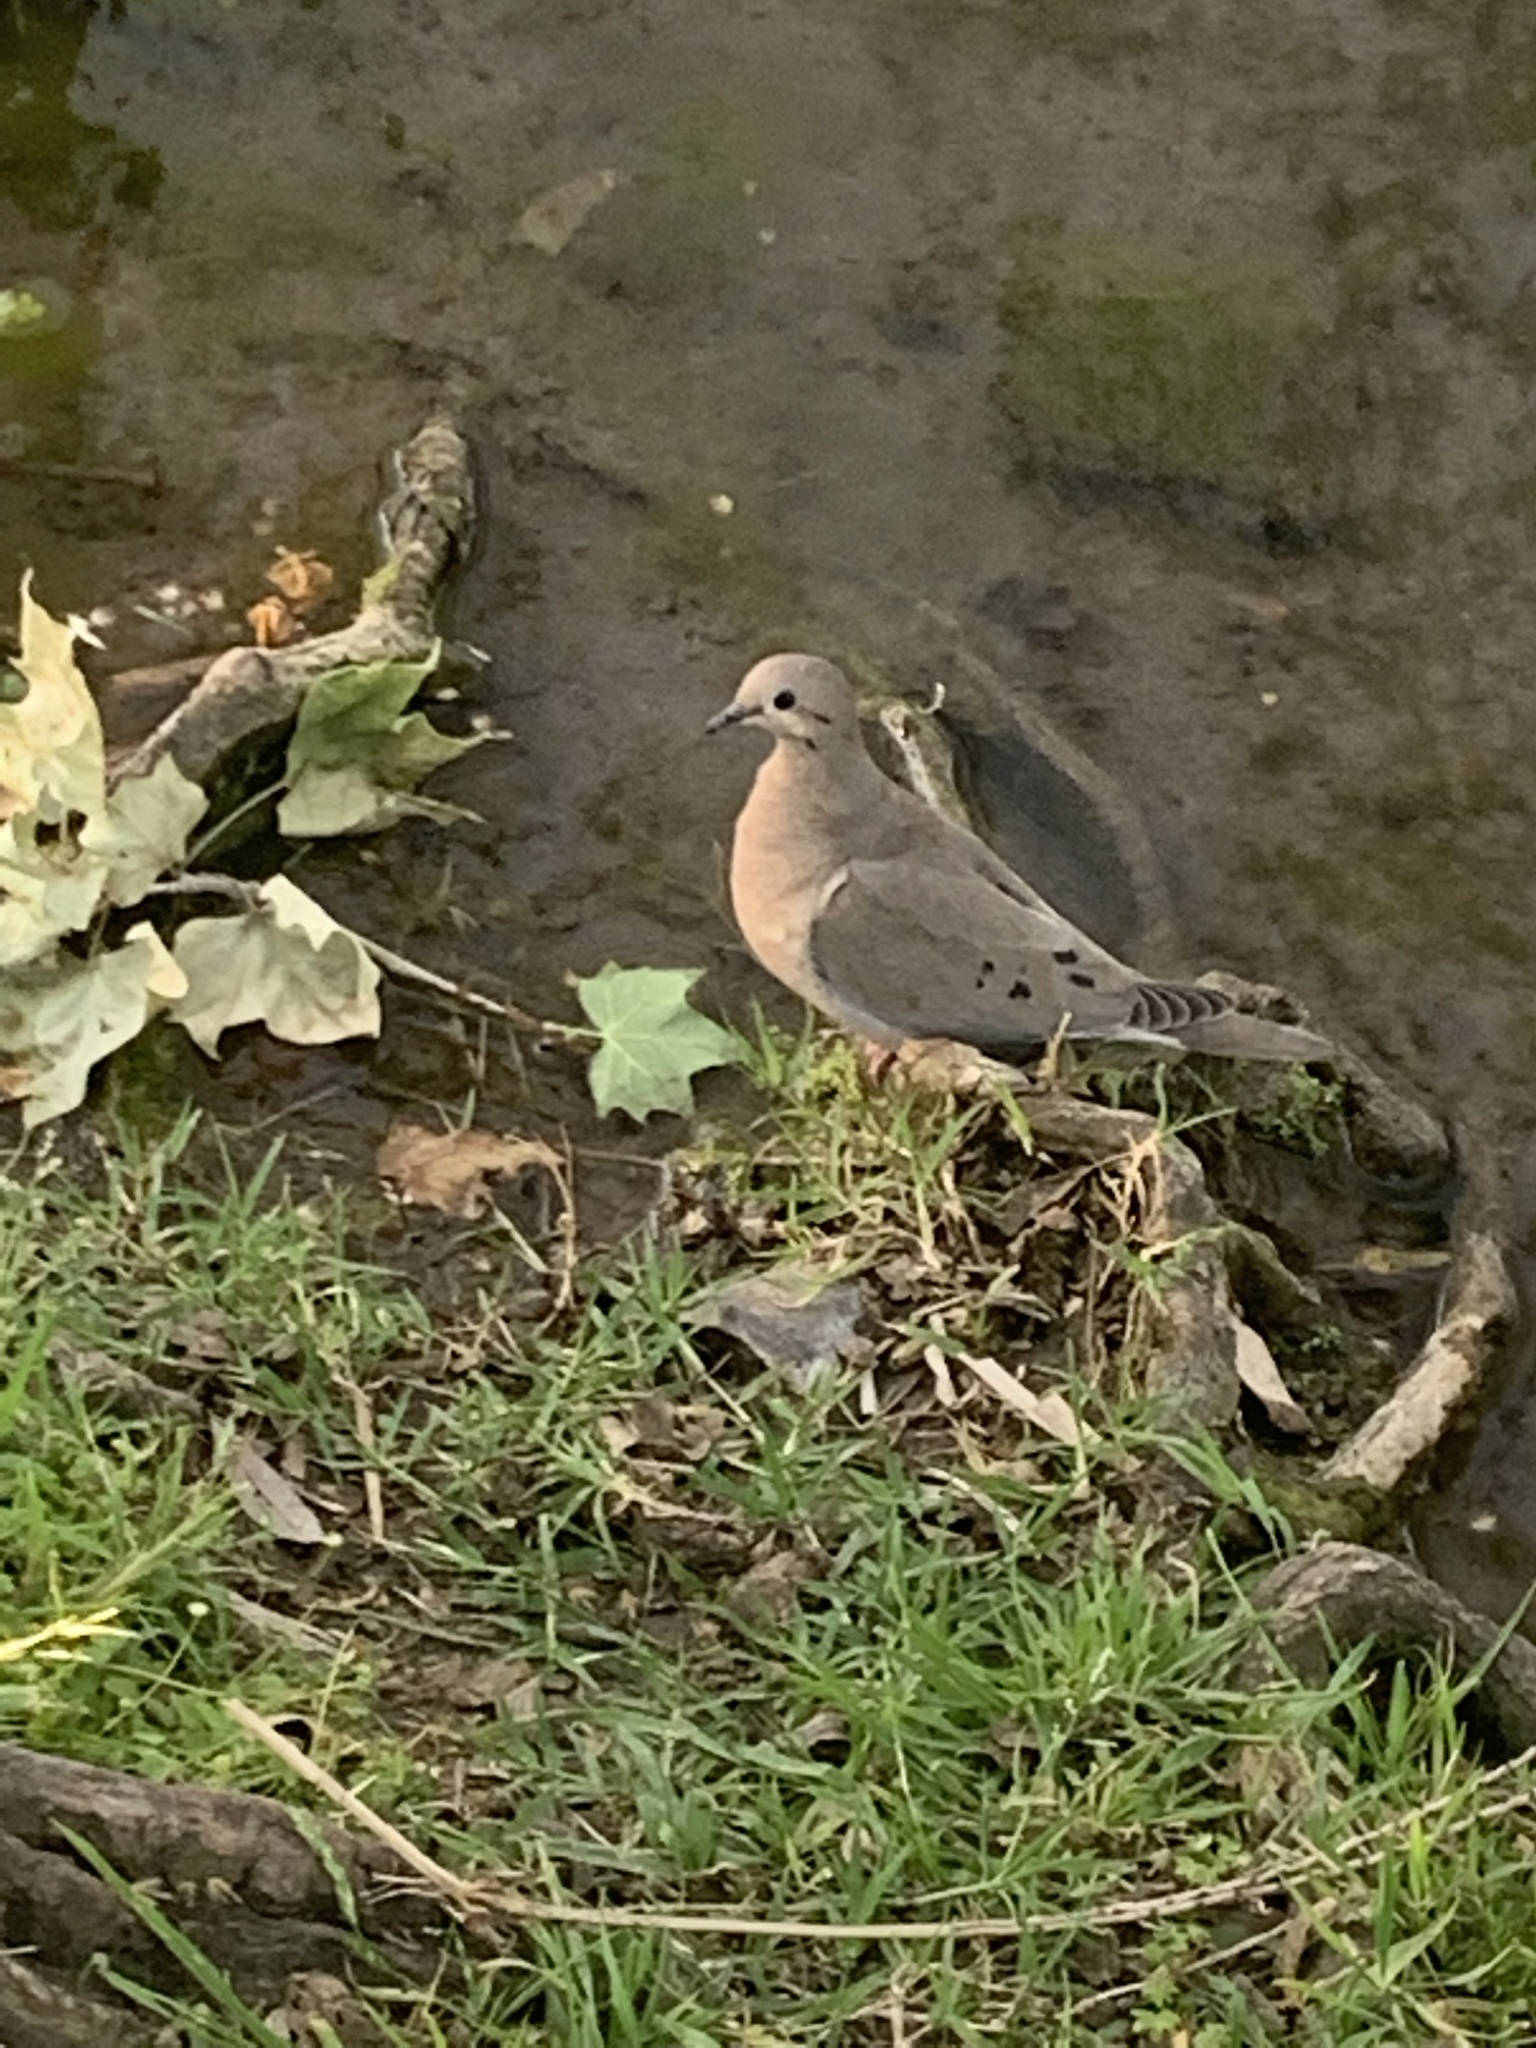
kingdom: Animalia
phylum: Chordata
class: Aves
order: Columbiformes
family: Columbidae
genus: Zenaida
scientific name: Zenaida auriculata
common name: Eared dove
